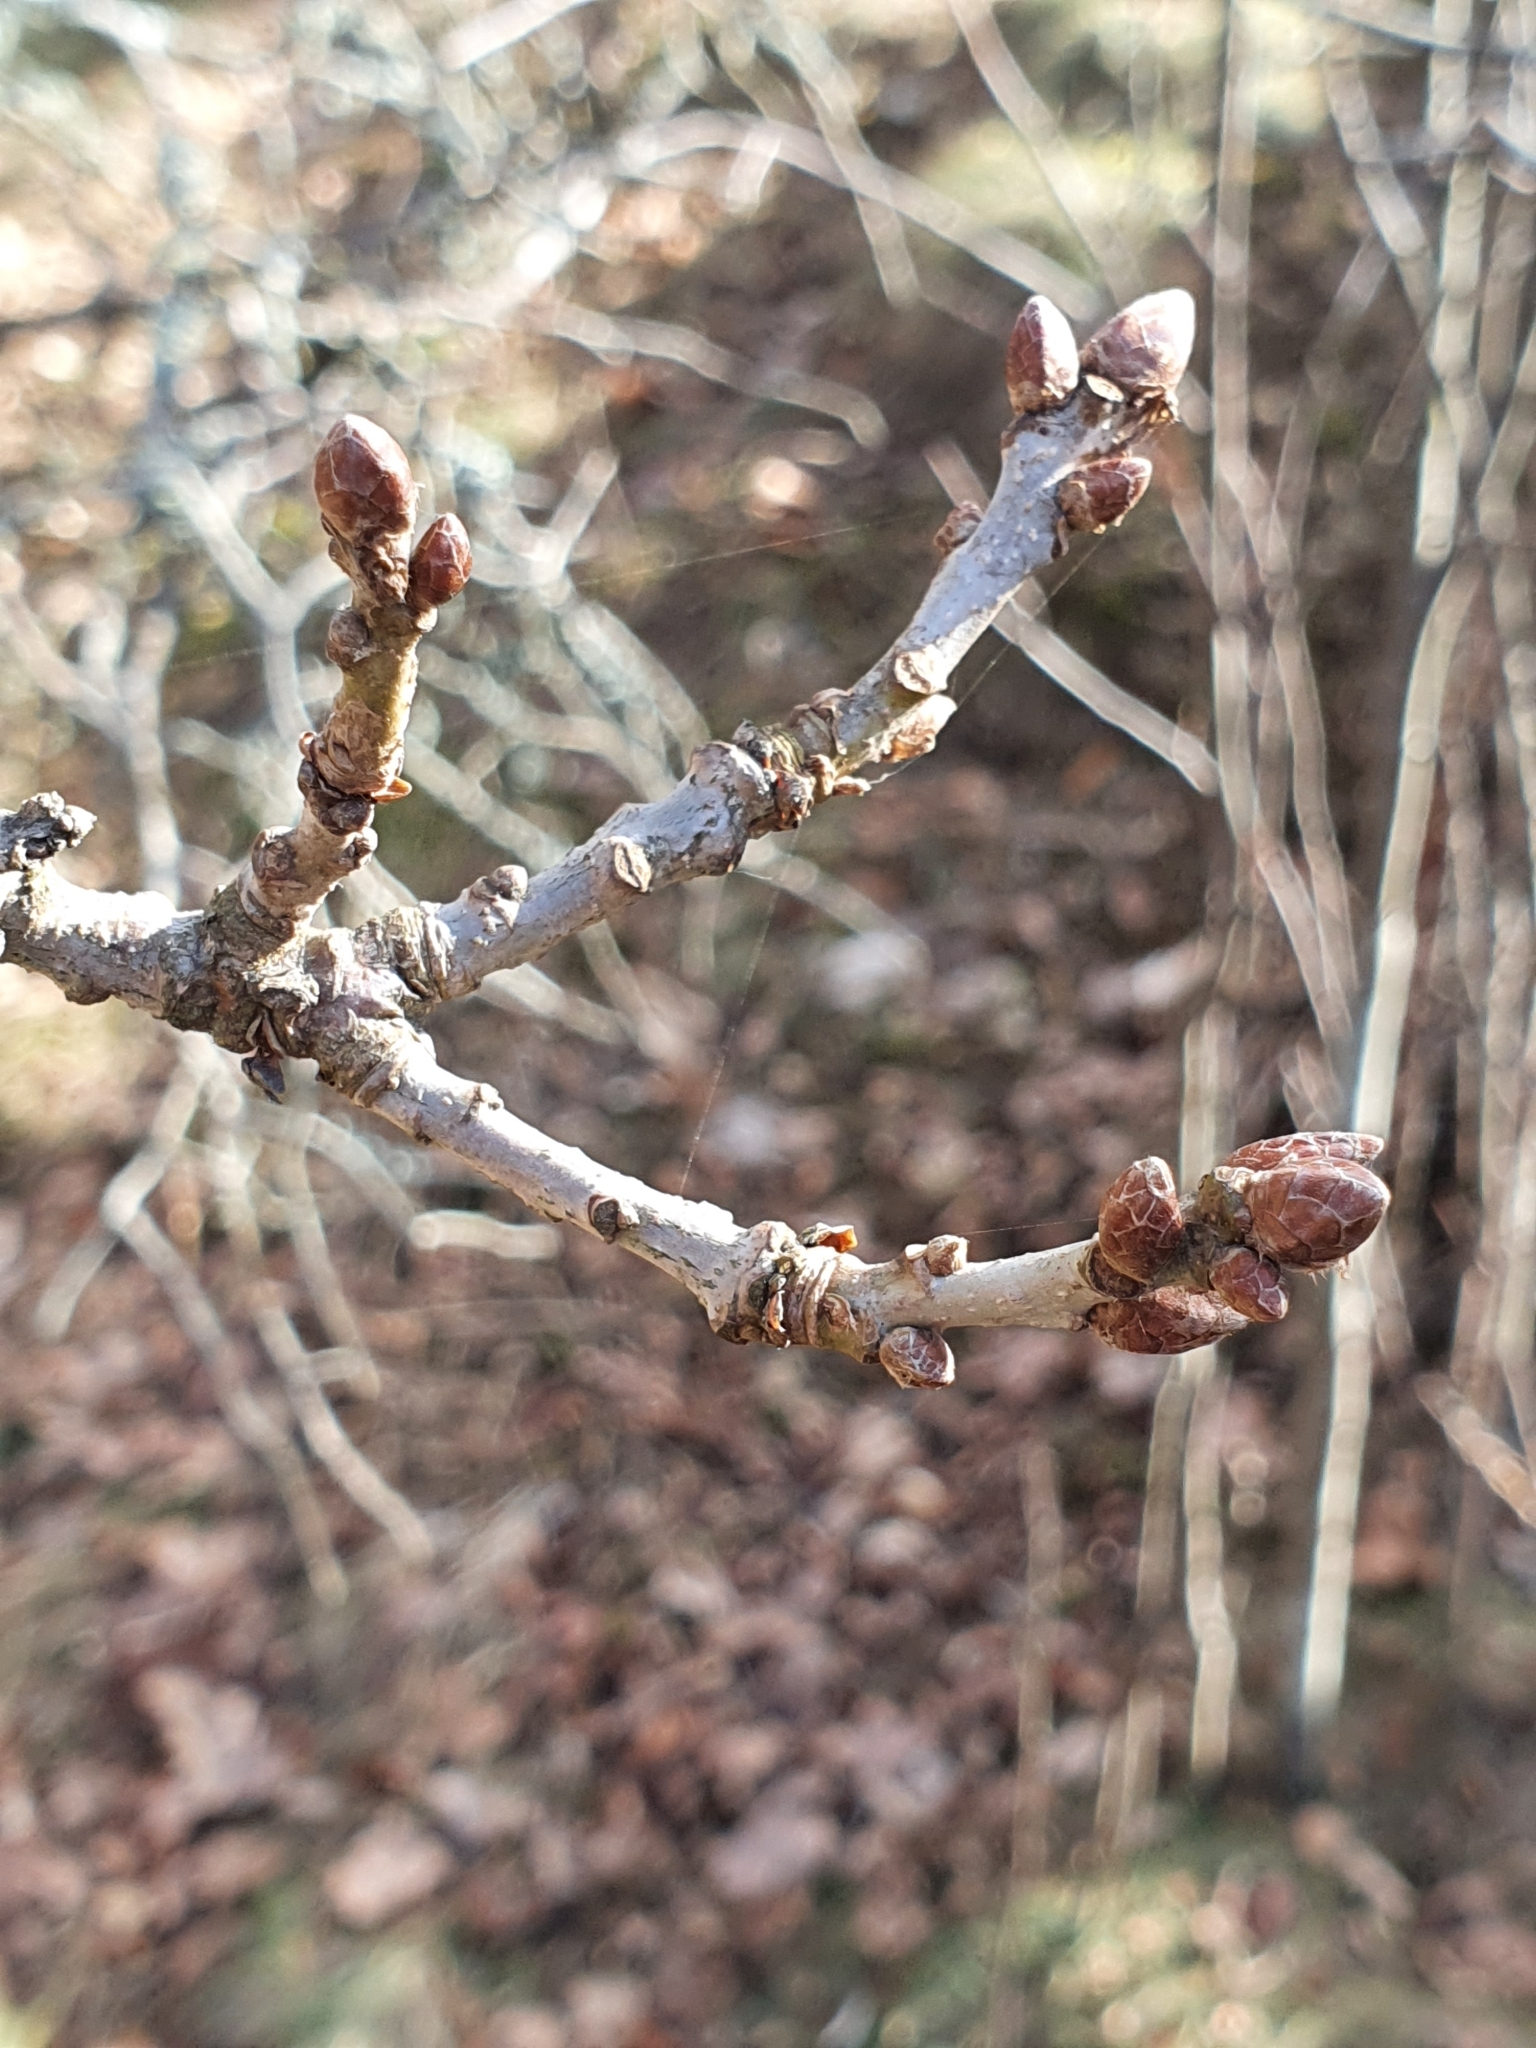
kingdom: Plantae
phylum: Tracheophyta
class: Magnoliopsida
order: Fagales
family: Fagaceae
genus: Quercus
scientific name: Quercus robur
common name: Pedunculate oak
